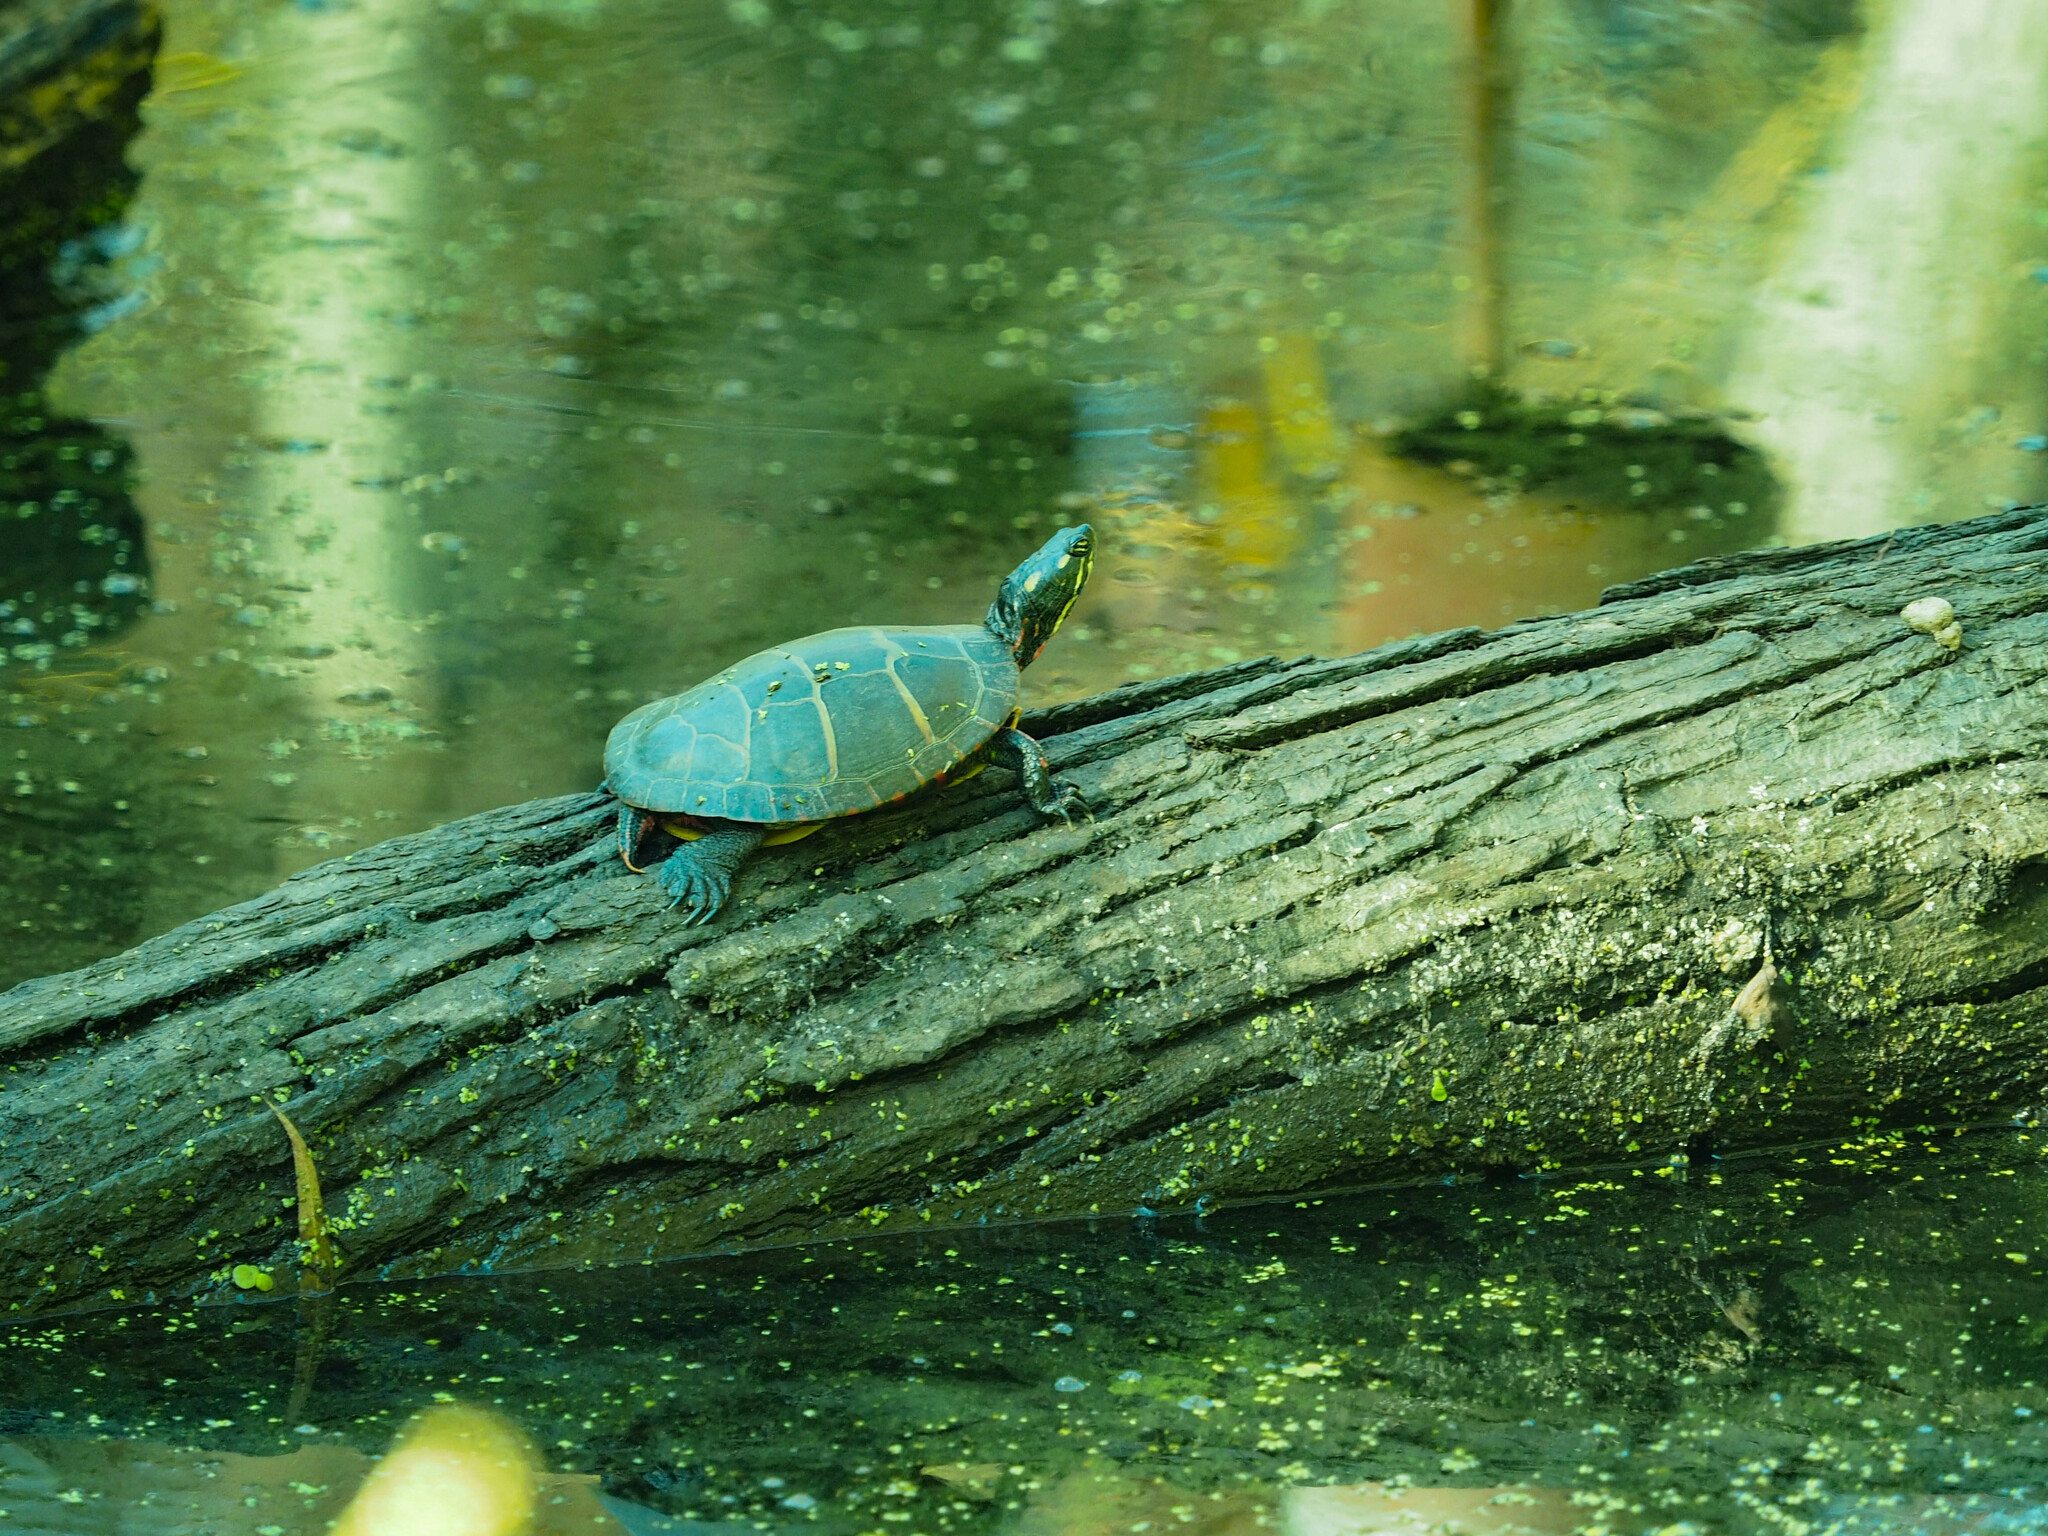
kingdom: Animalia
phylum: Chordata
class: Testudines
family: Emydidae
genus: Chrysemys
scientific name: Chrysemys picta
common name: Painted turtle
